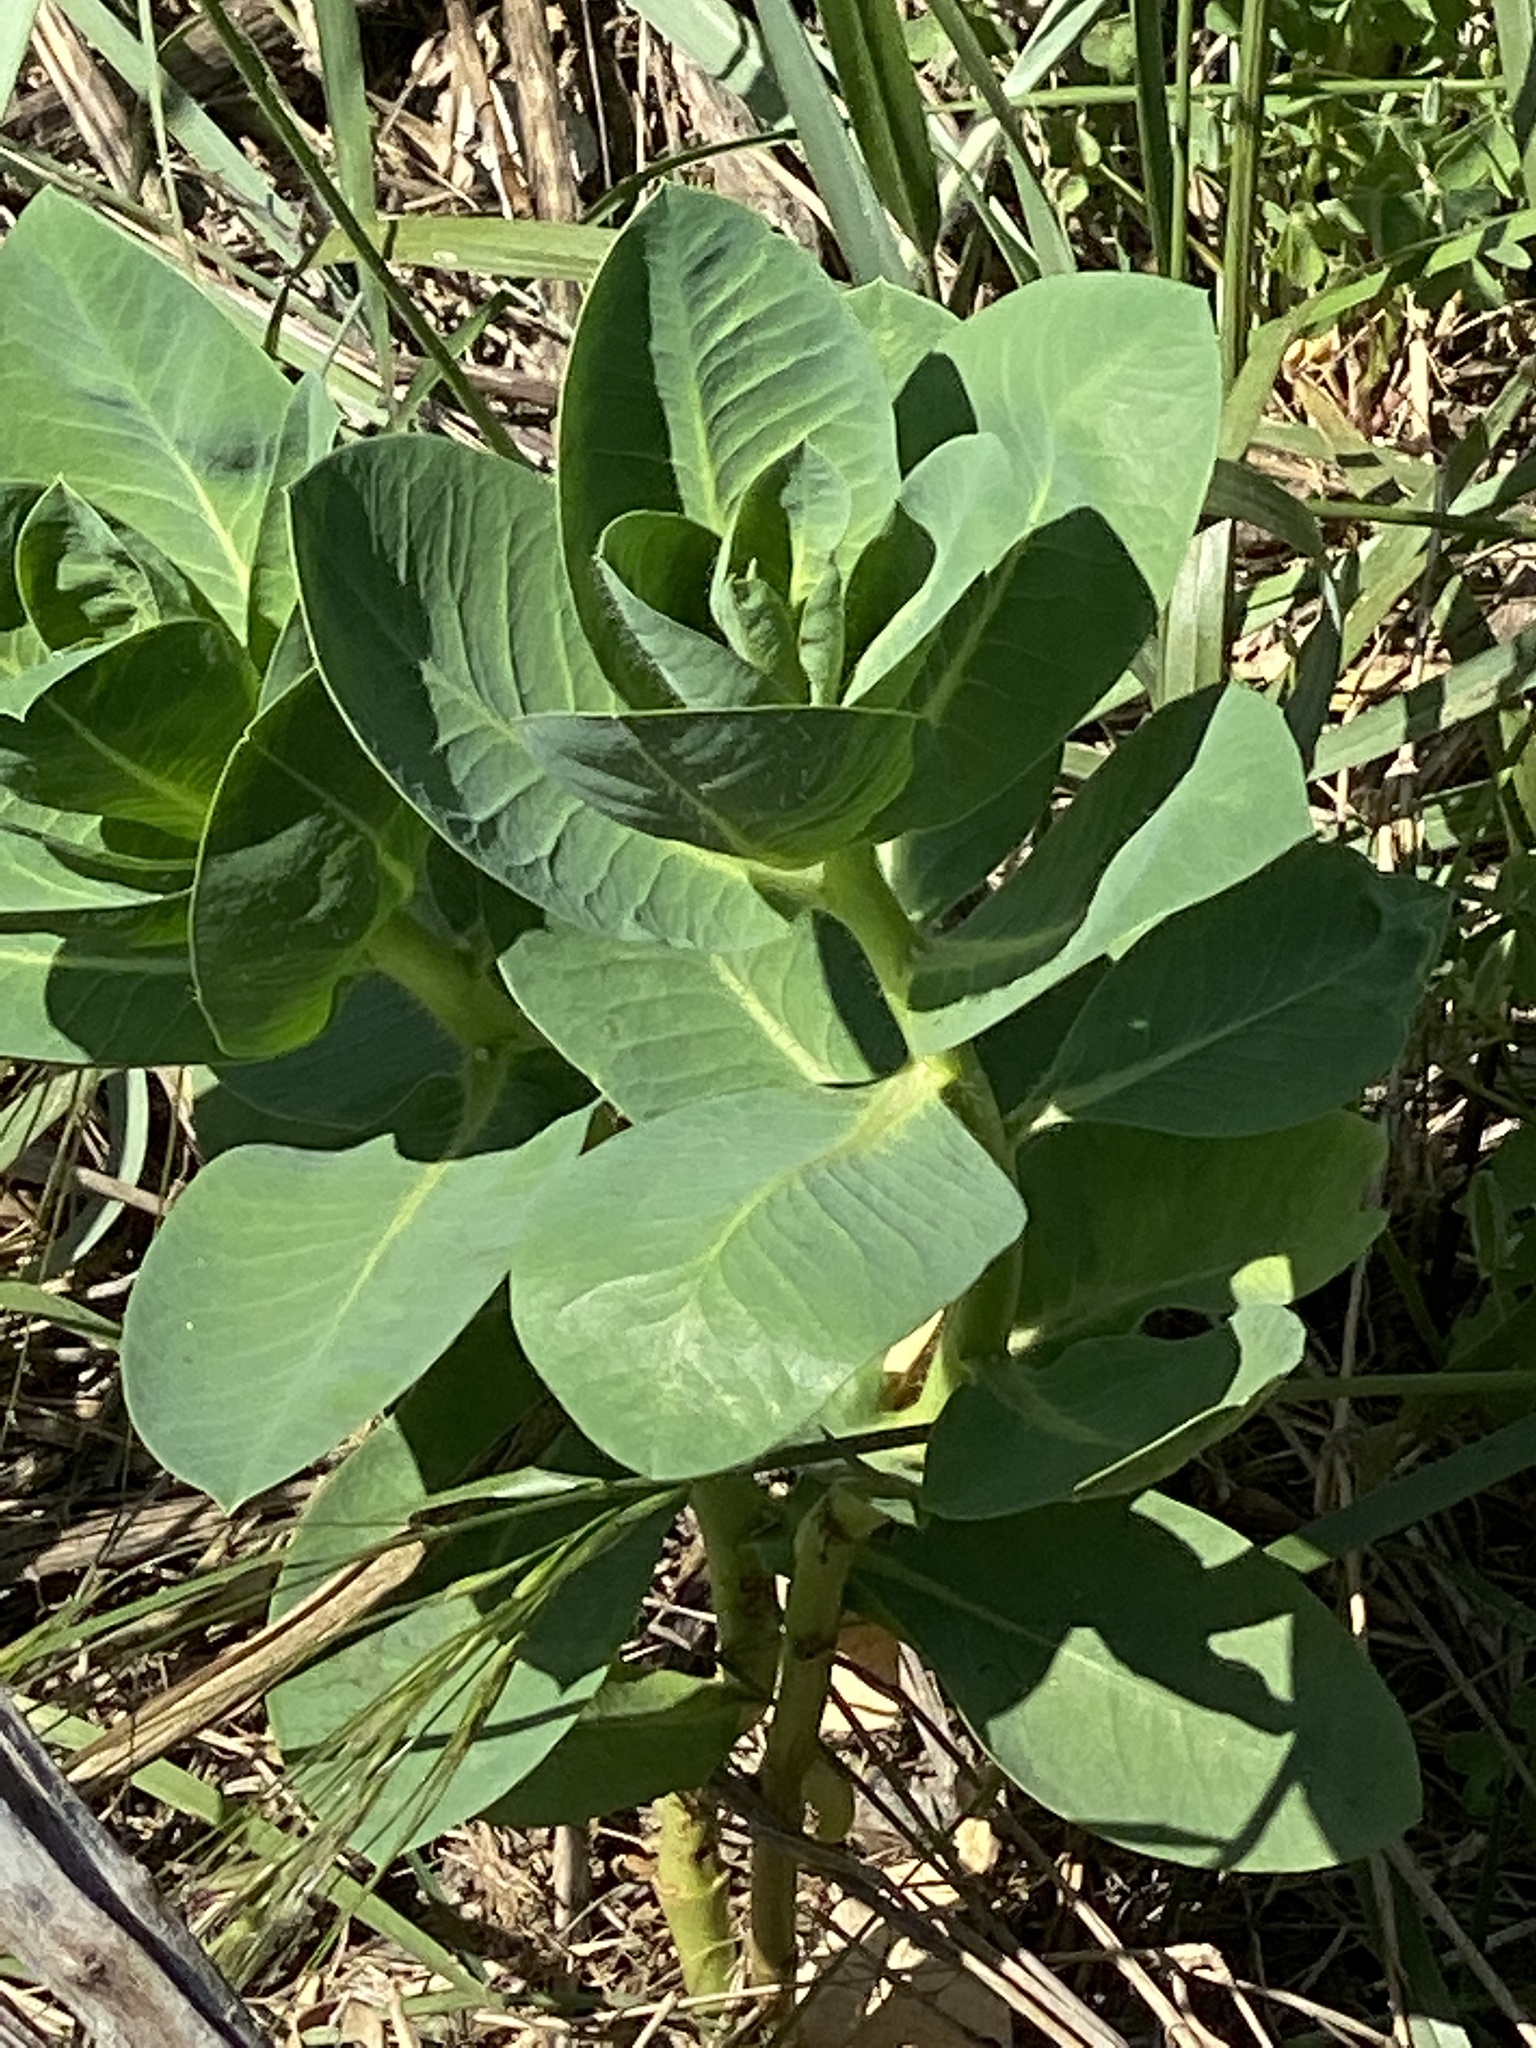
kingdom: Plantae
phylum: Tracheophyta
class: Magnoliopsida
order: Malpighiales
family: Euphorbiaceae
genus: Euphorbia
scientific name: Euphorbia marginata
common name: Ghostweed
